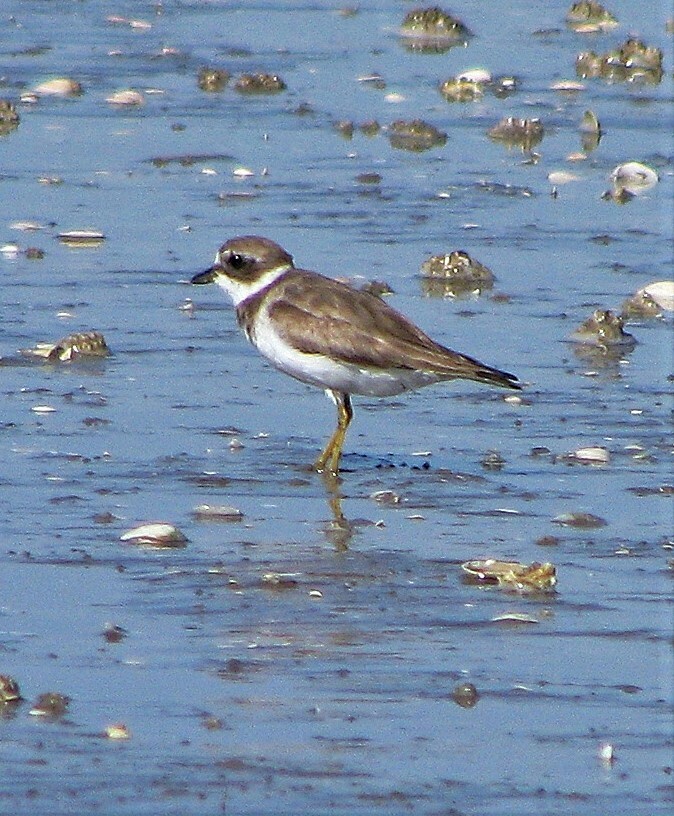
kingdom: Animalia
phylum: Chordata
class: Aves
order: Charadriiformes
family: Charadriidae
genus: Charadrius
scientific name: Charadrius semipalmatus
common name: Semipalmated plover
